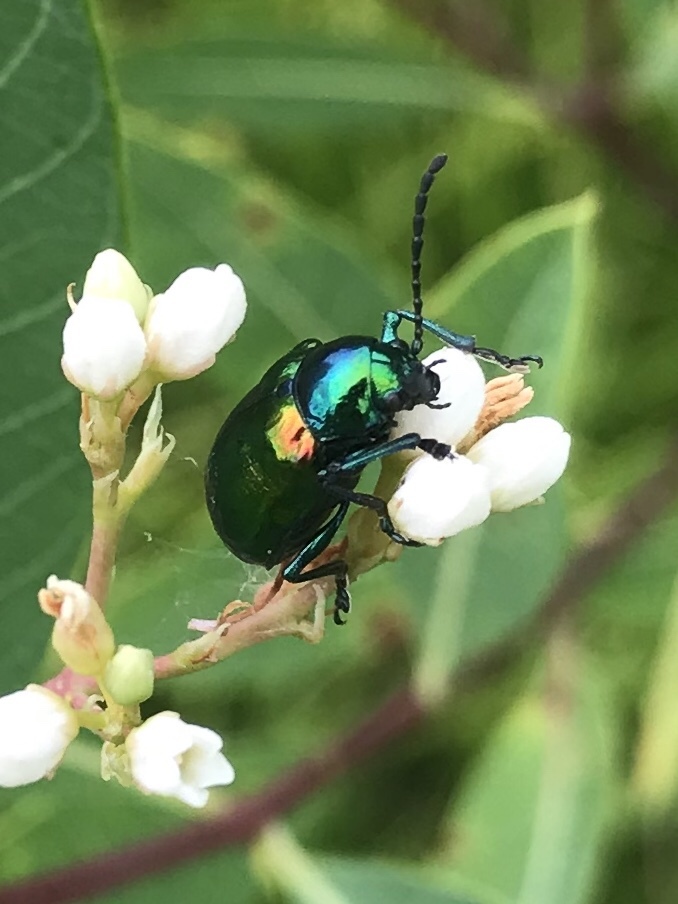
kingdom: Animalia
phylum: Arthropoda
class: Insecta
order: Coleoptera
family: Chrysomelidae
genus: Chrysochus
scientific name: Chrysochus auratus
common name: Dogbane leaf beetle
